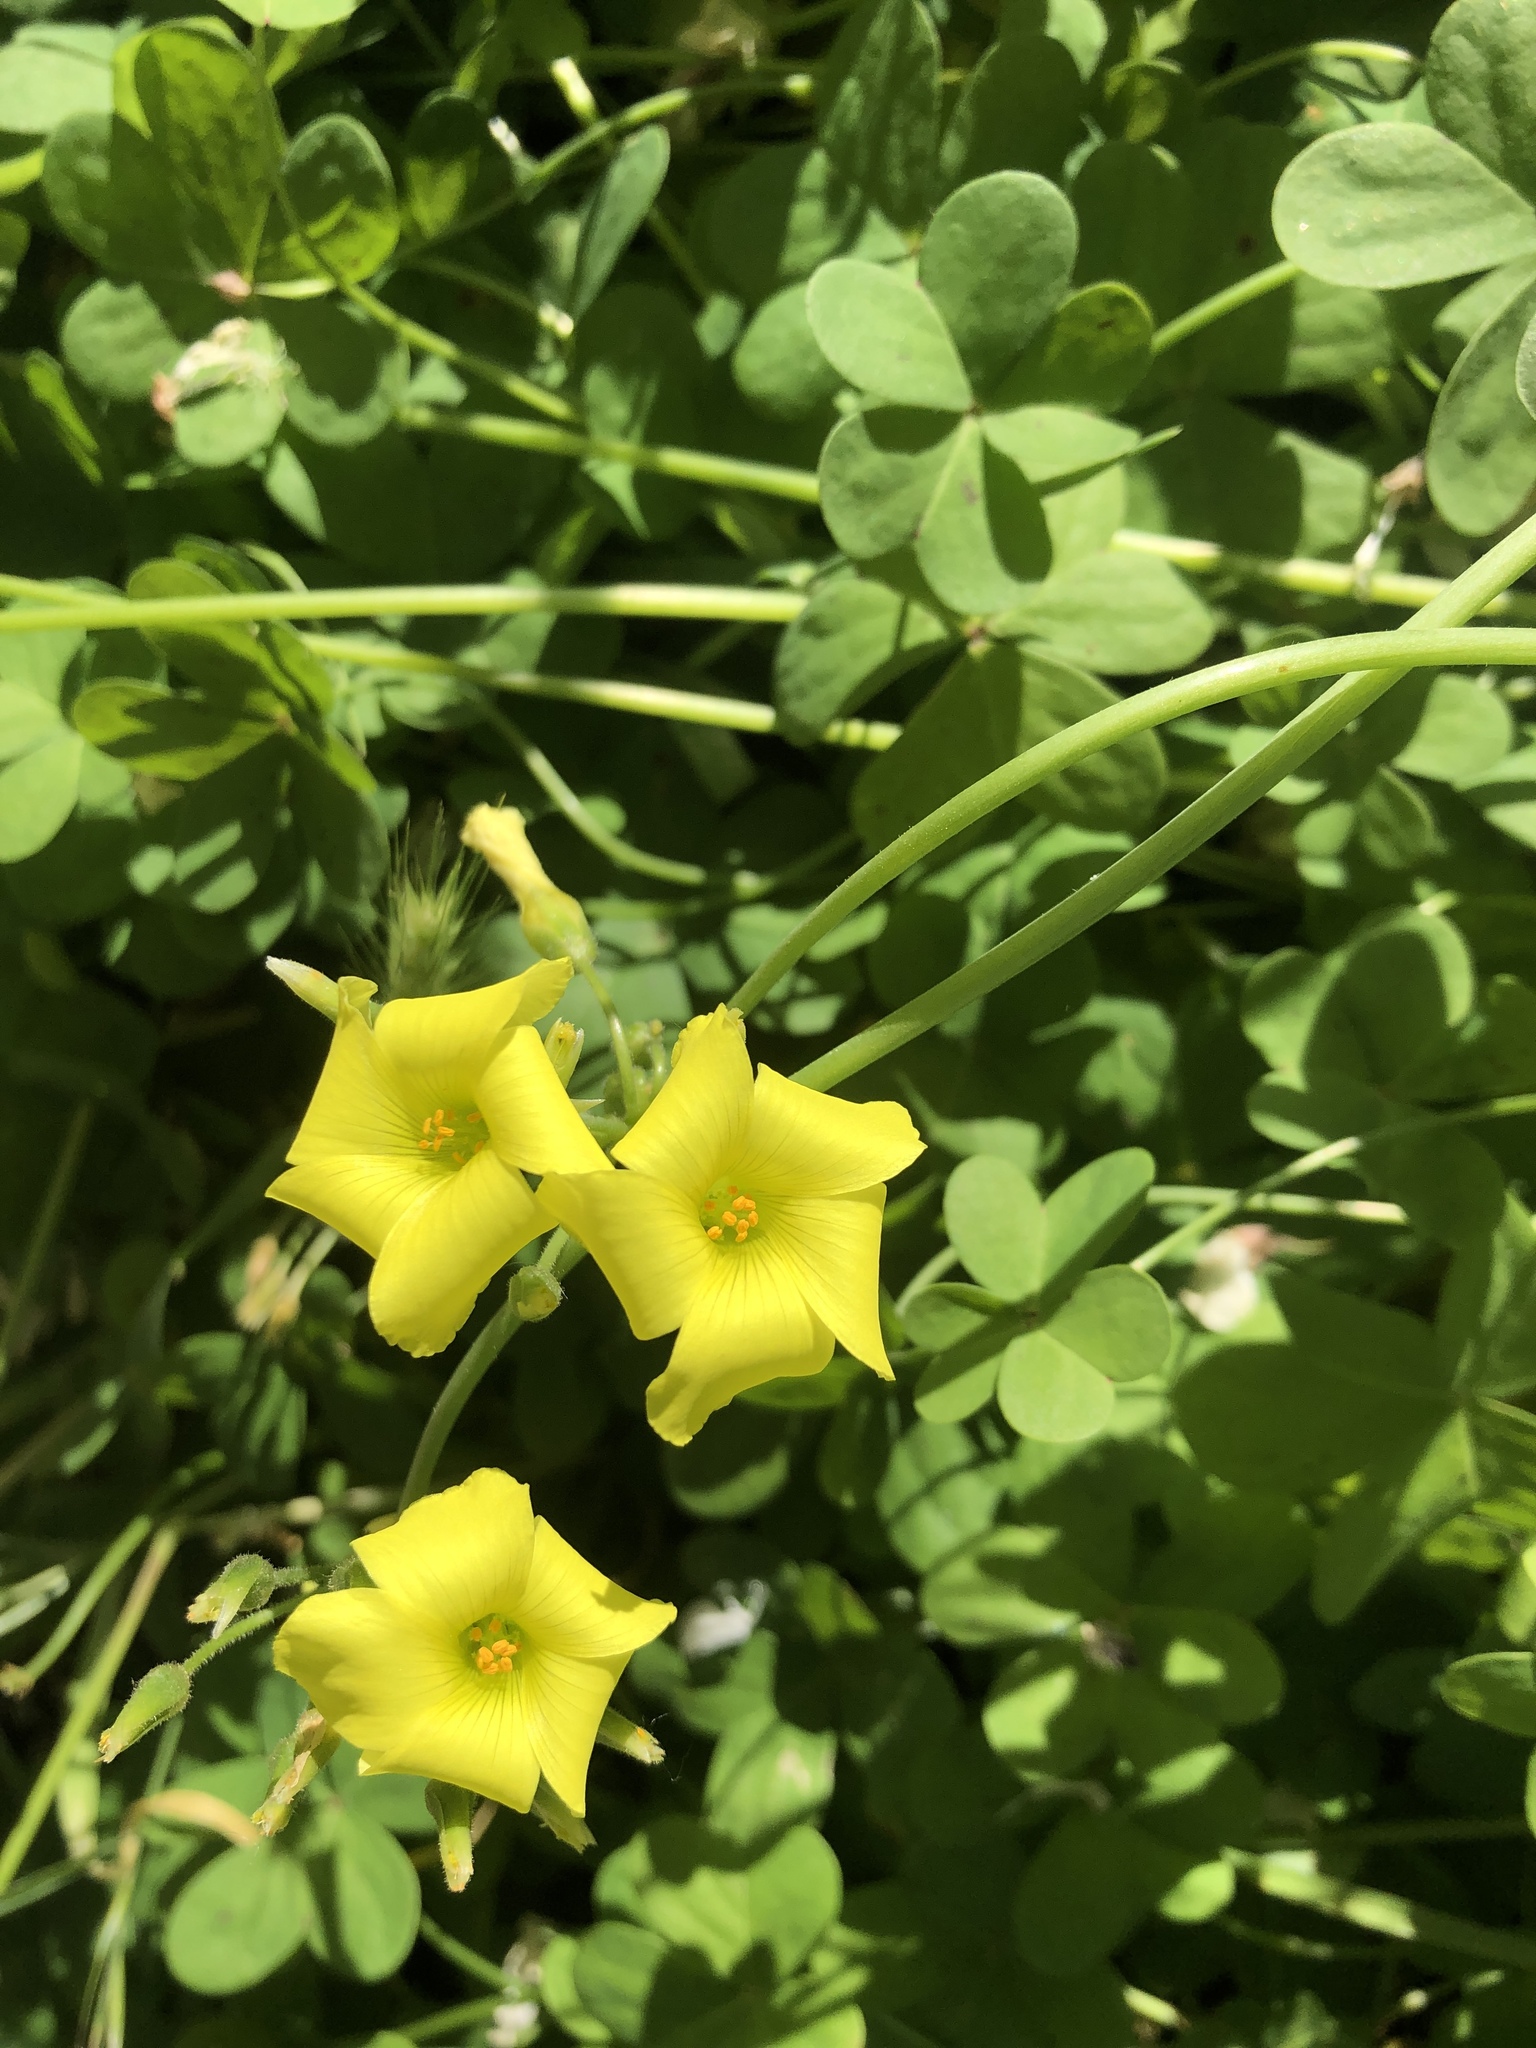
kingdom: Plantae
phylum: Tracheophyta
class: Magnoliopsida
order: Oxalidales
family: Oxalidaceae
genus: Oxalis
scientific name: Oxalis pes-caprae
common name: Bermuda-buttercup
